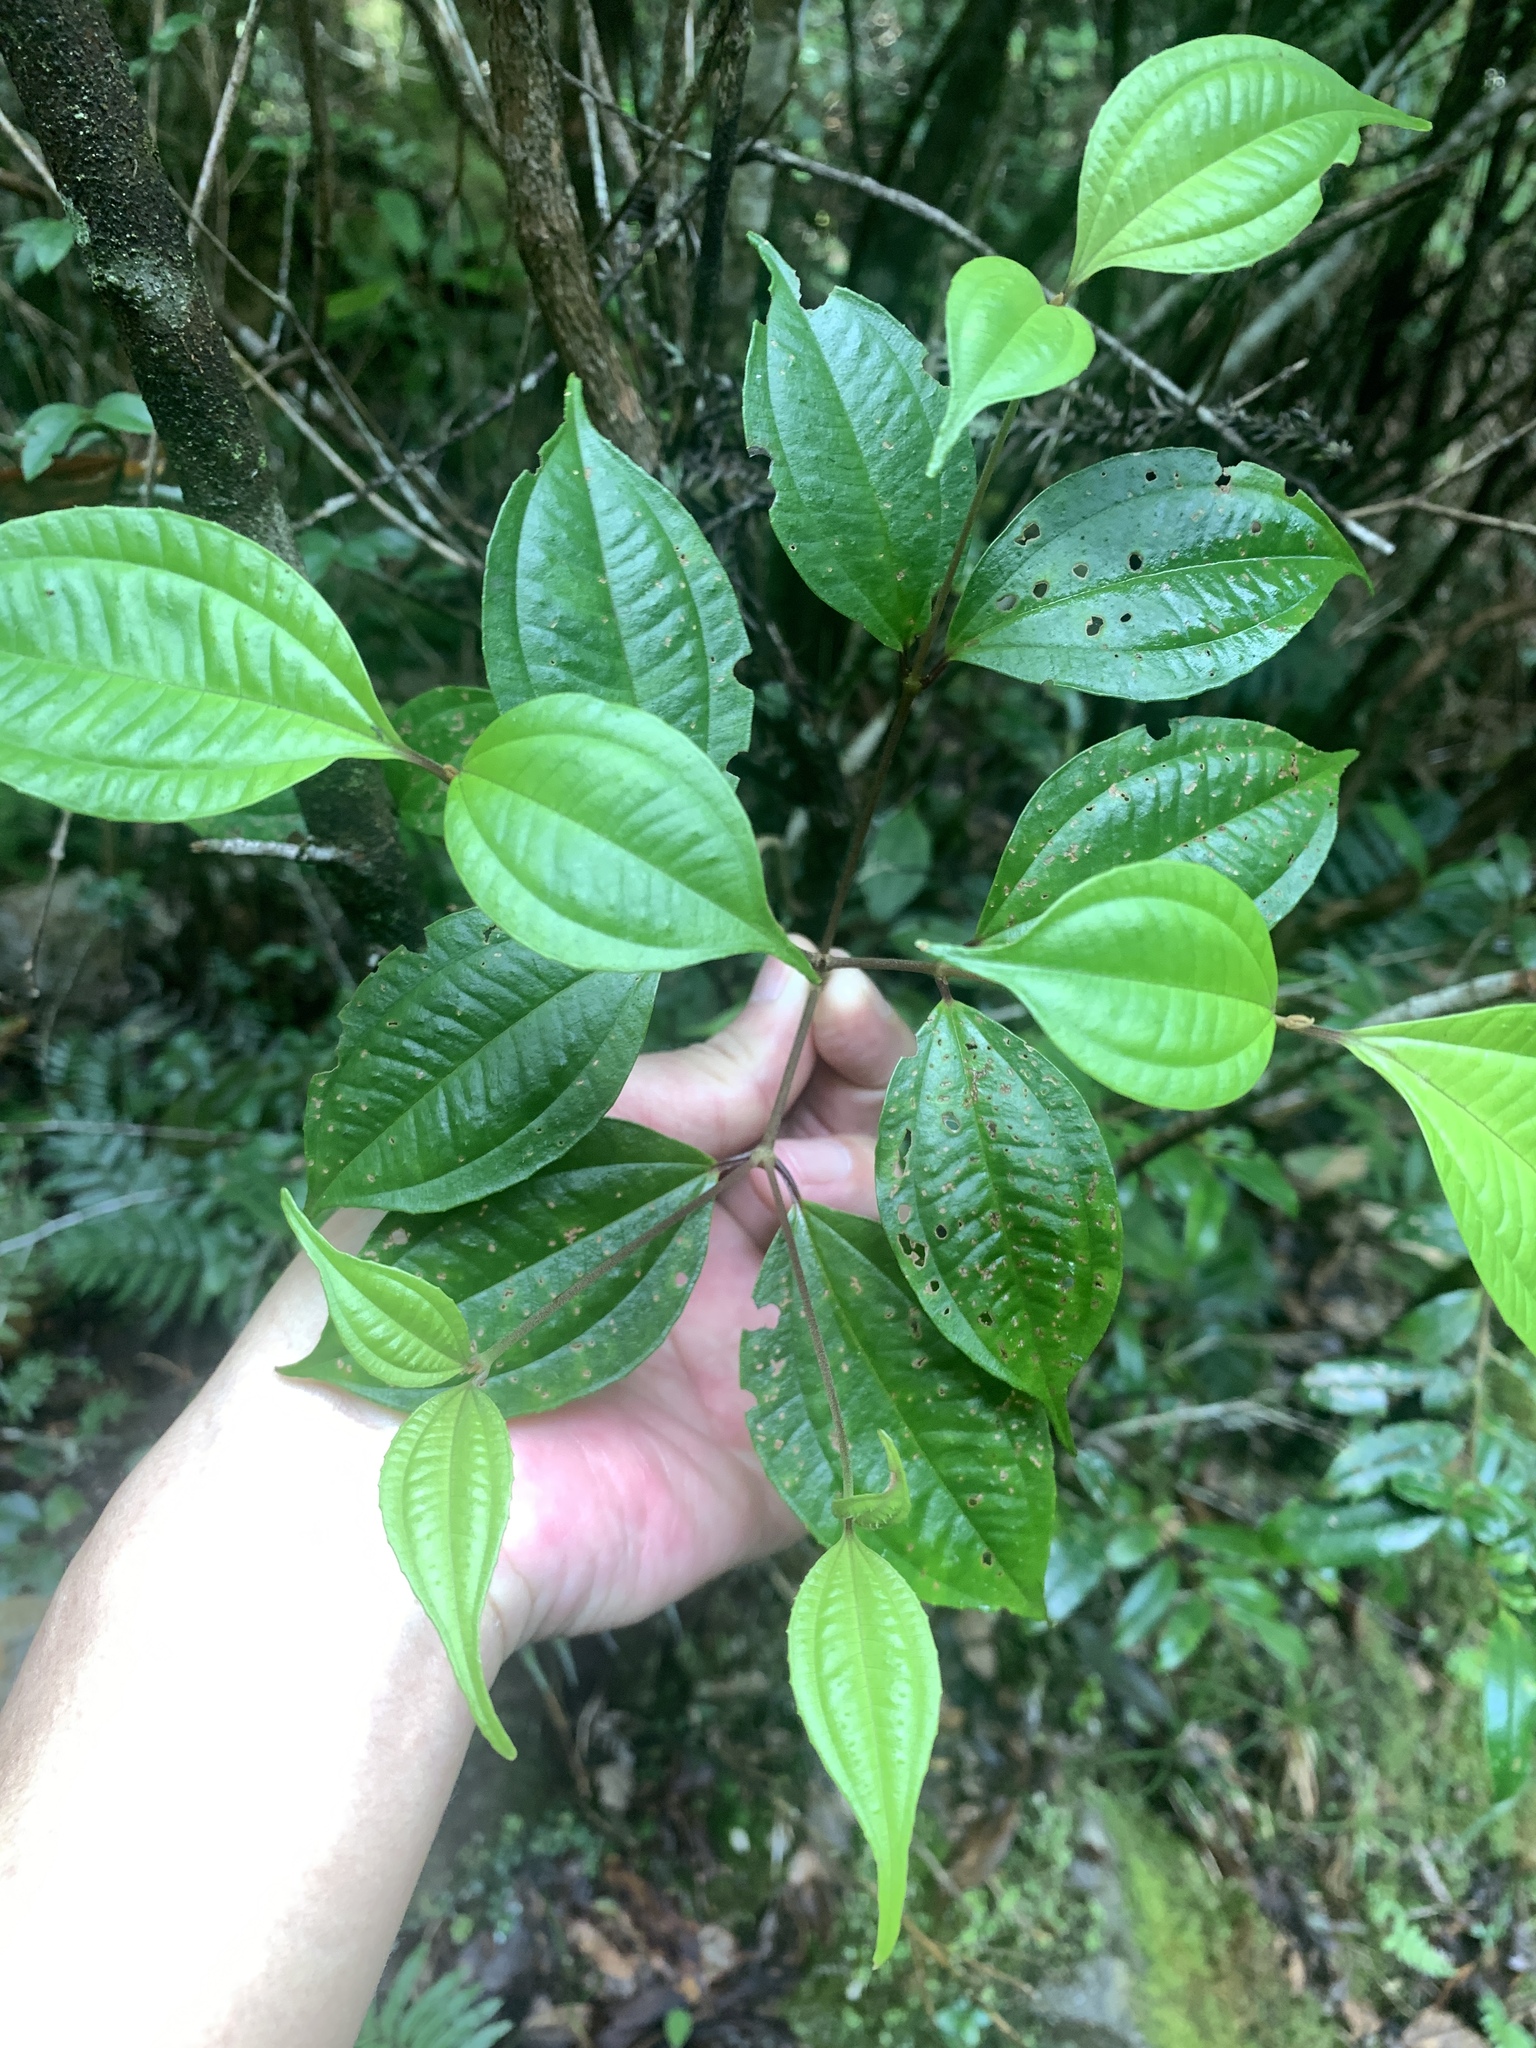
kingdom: Plantae
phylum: Tracheophyta
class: Magnoliopsida
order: Myrtales
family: Melastomataceae
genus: Barthea
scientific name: Barthea barthei
